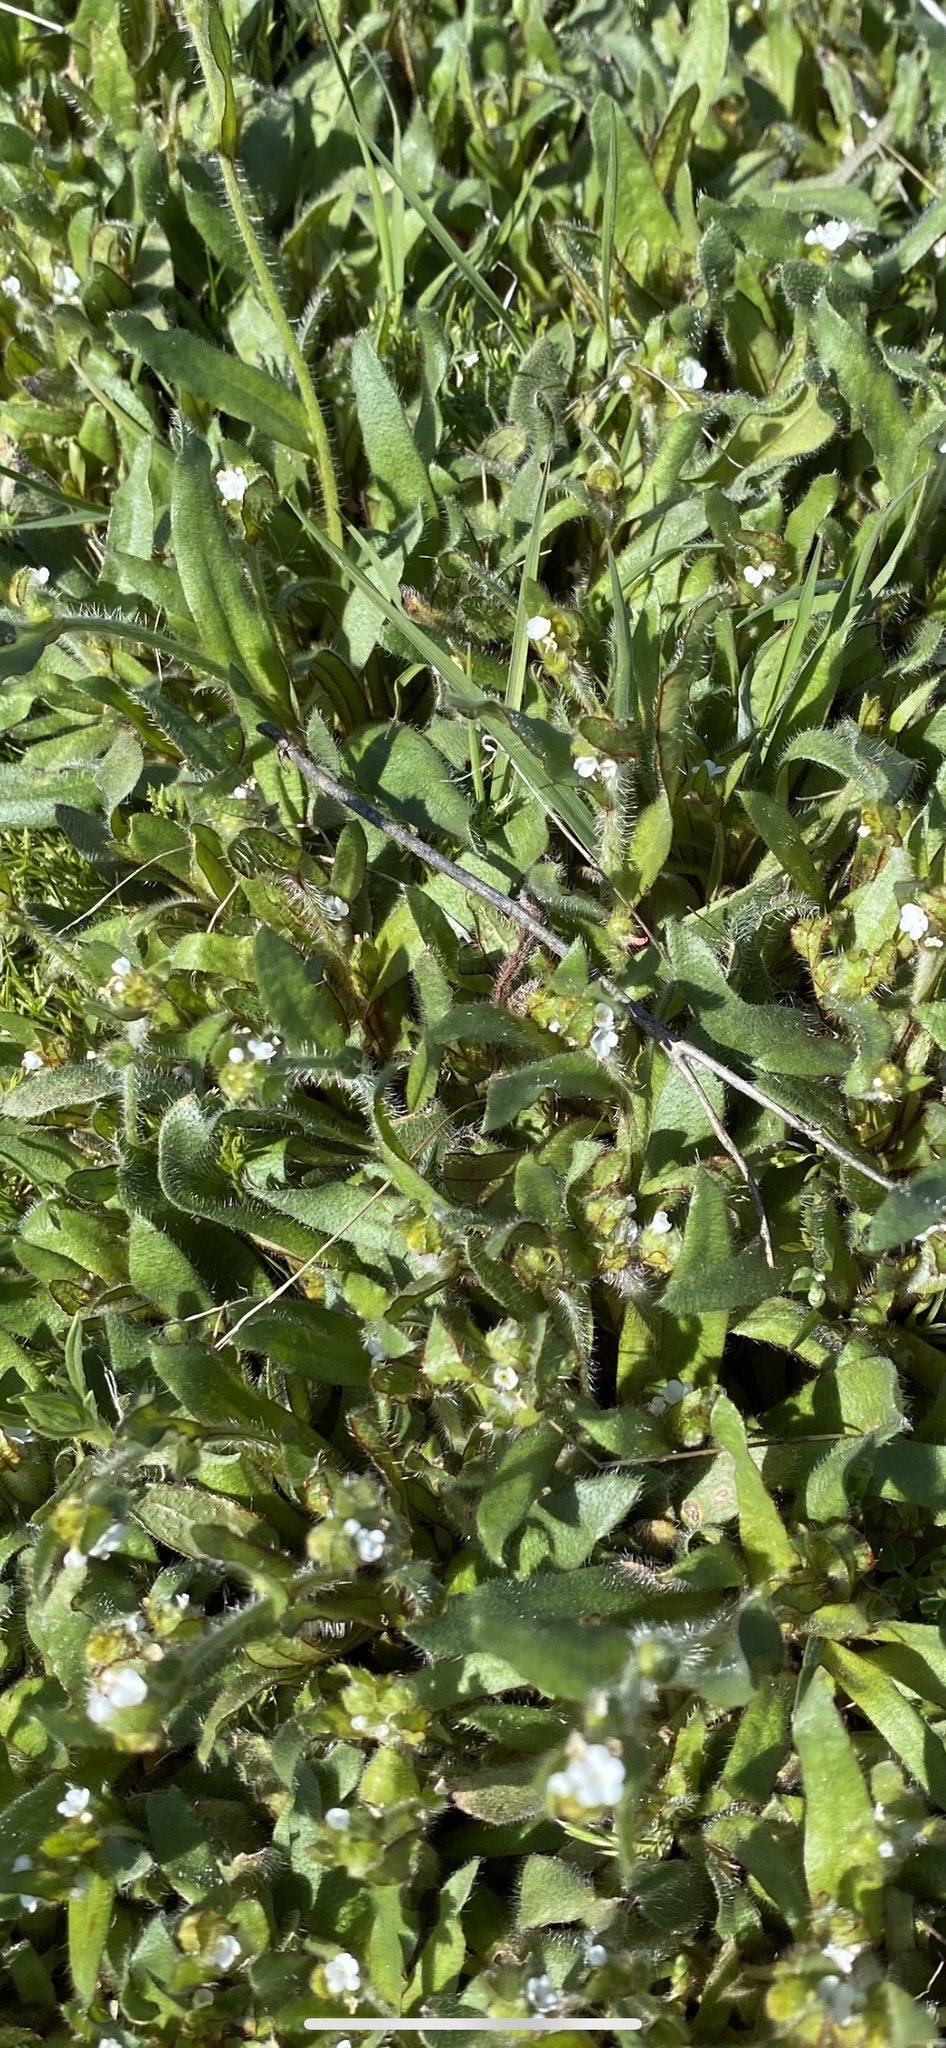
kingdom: Plantae
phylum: Tracheophyta
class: Magnoliopsida
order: Boraginales
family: Boraginaceae
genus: Plagiobothrys
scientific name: Plagiobothrys arizonicus
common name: Arizona popcorn-flower
